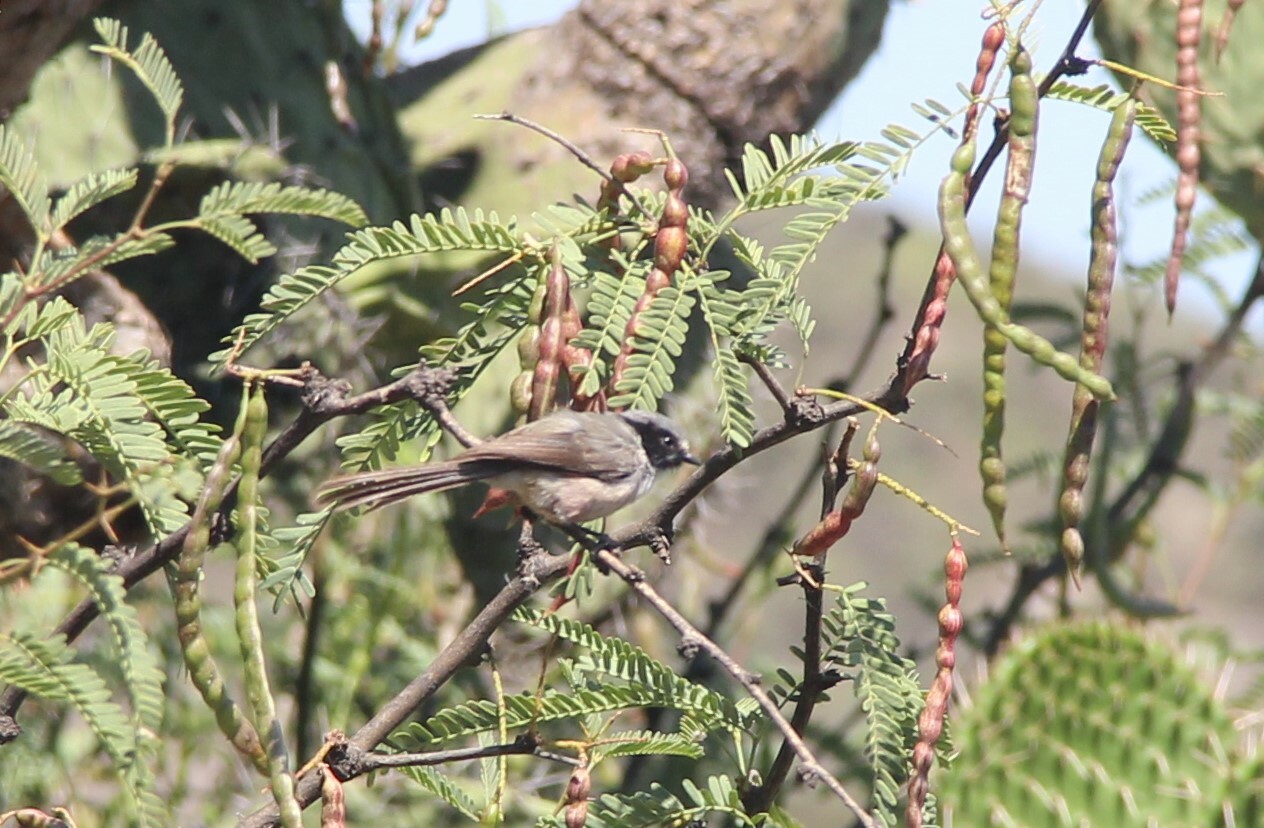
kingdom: Animalia
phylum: Chordata
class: Aves
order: Passeriformes
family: Aegithalidae
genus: Psaltriparus
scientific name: Psaltriparus minimus
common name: American bushtit
